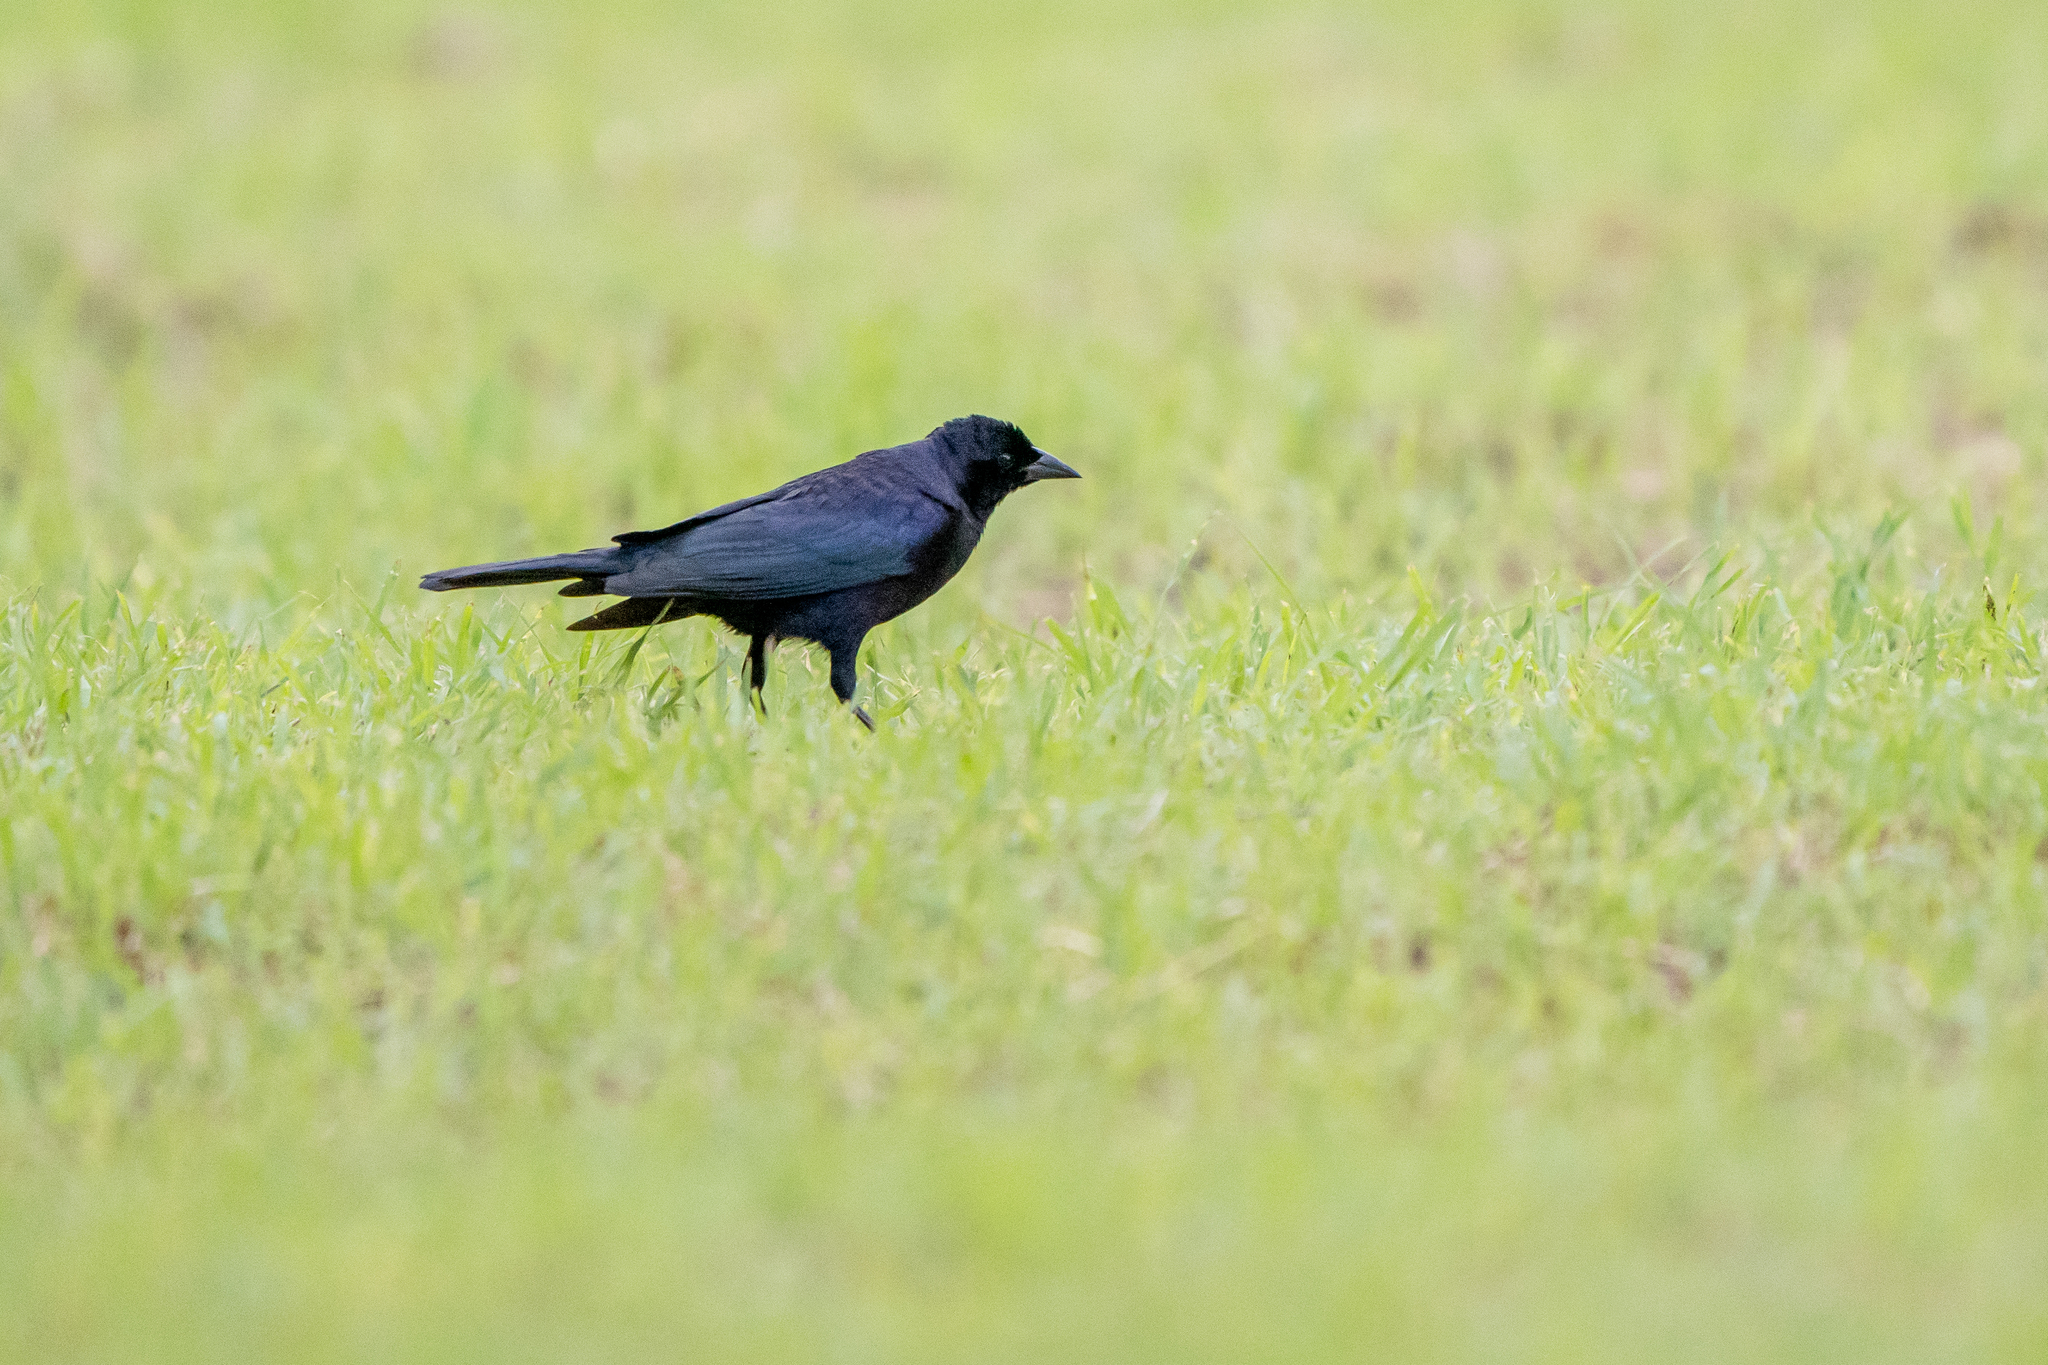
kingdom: Animalia
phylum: Chordata
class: Aves
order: Passeriformes
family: Icteridae
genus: Molothrus
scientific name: Molothrus bonariensis
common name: Shiny cowbird
